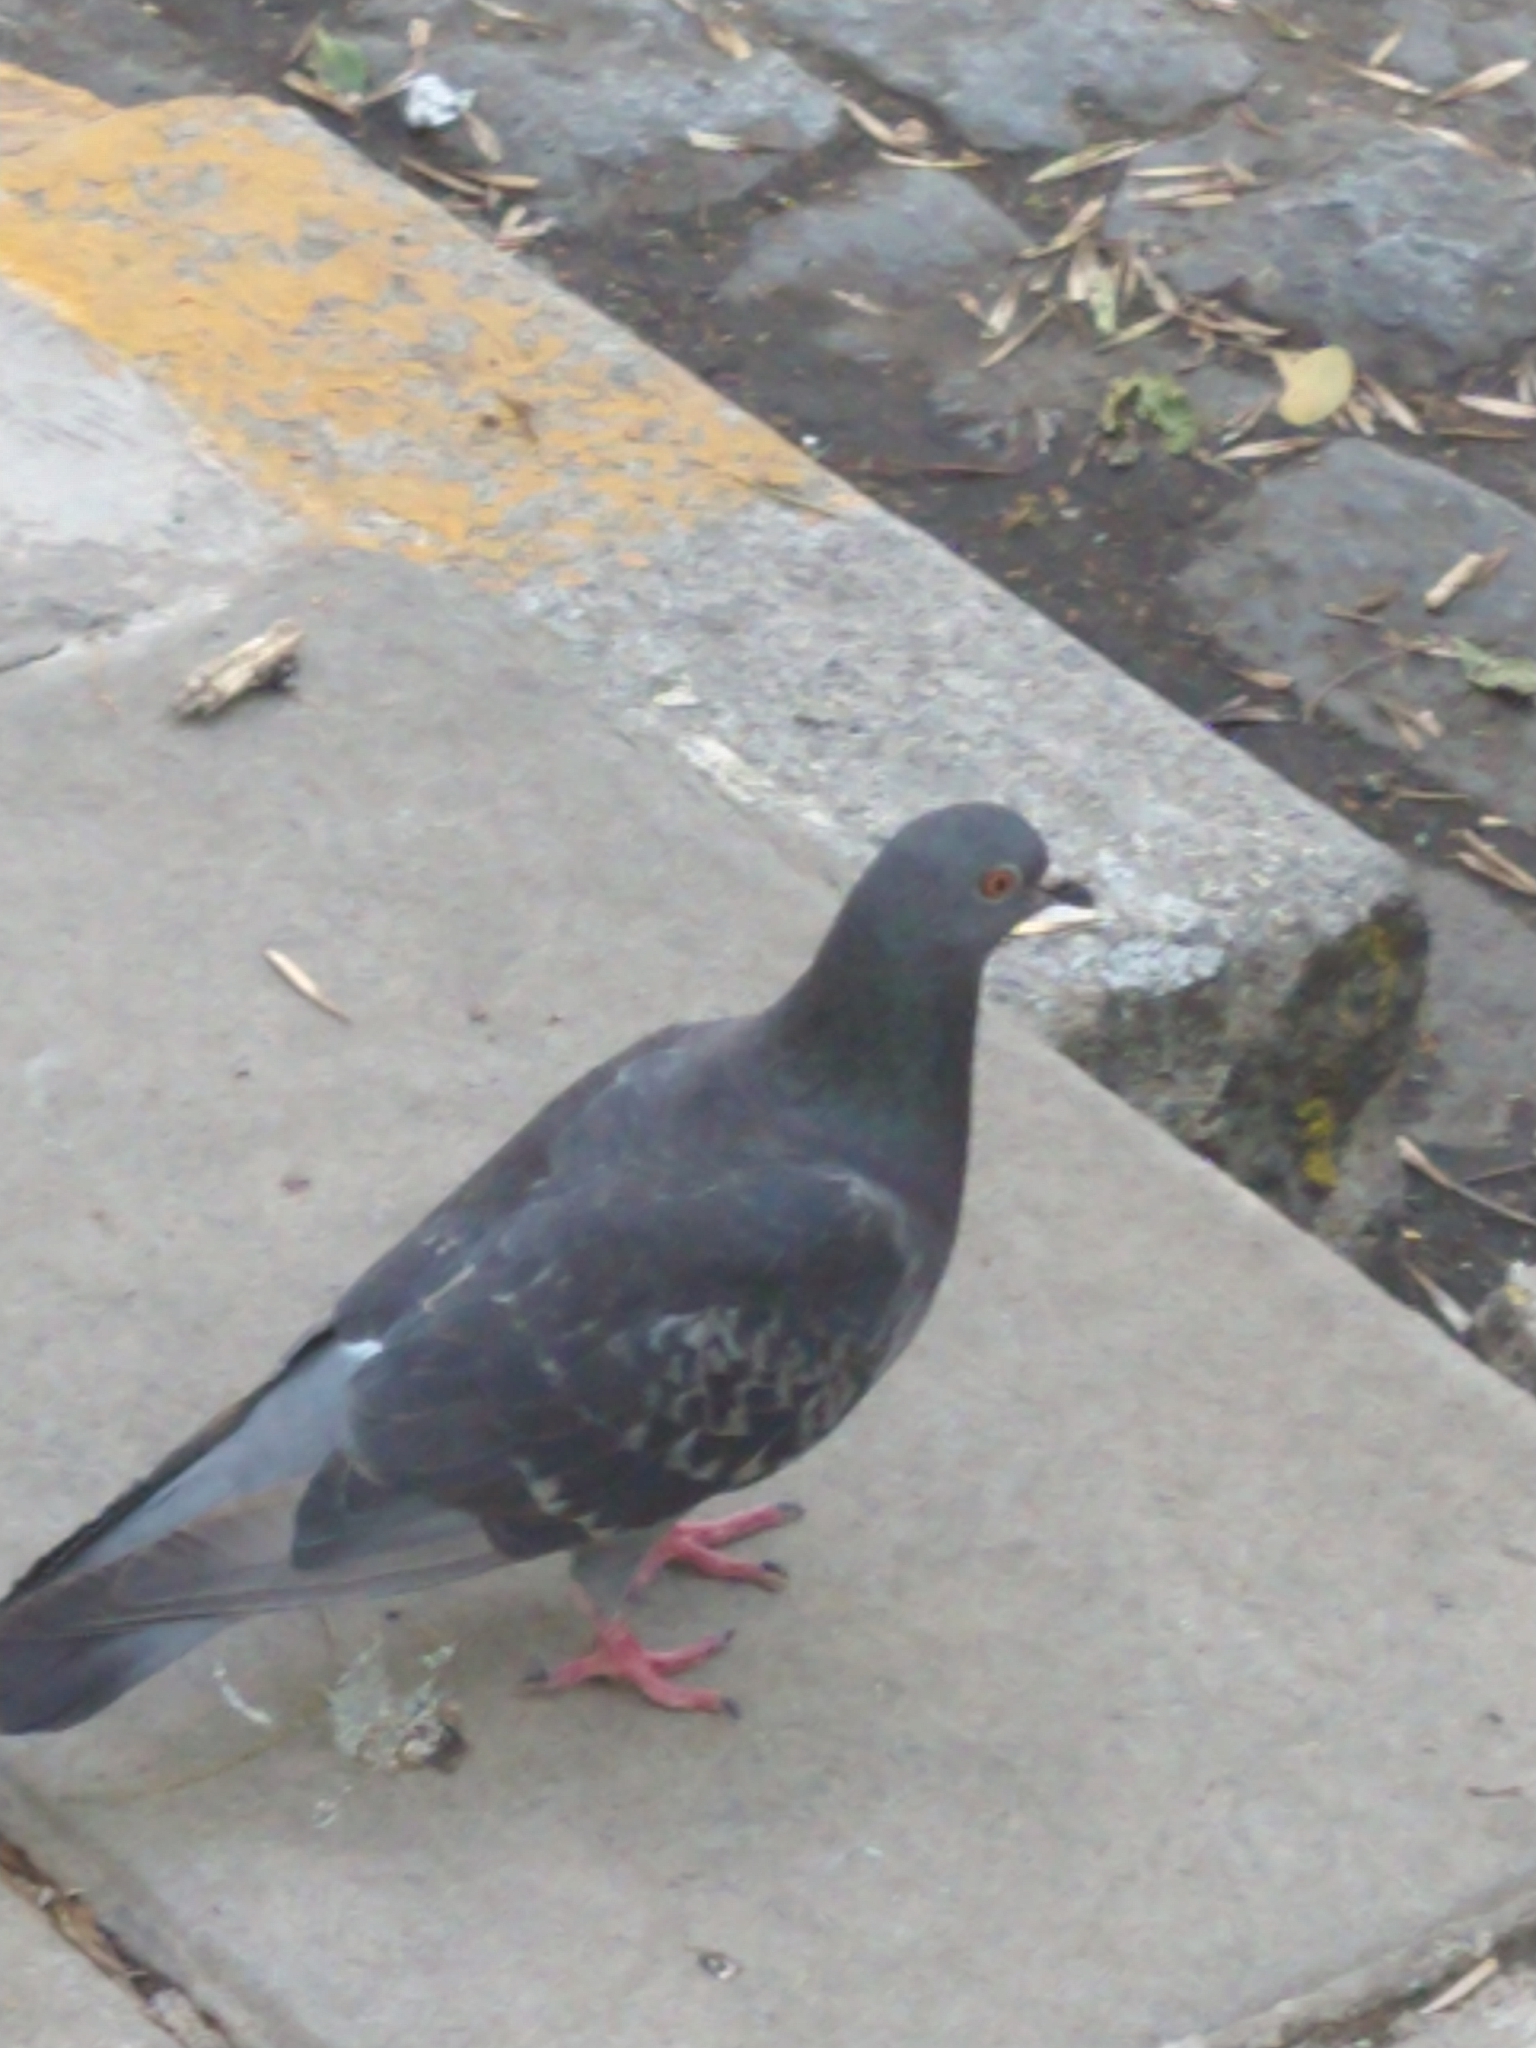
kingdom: Animalia
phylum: Chordata
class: Aves
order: Columbiformes
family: Columbidae
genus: Columba
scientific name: Columba livia
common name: Rock pigeon
